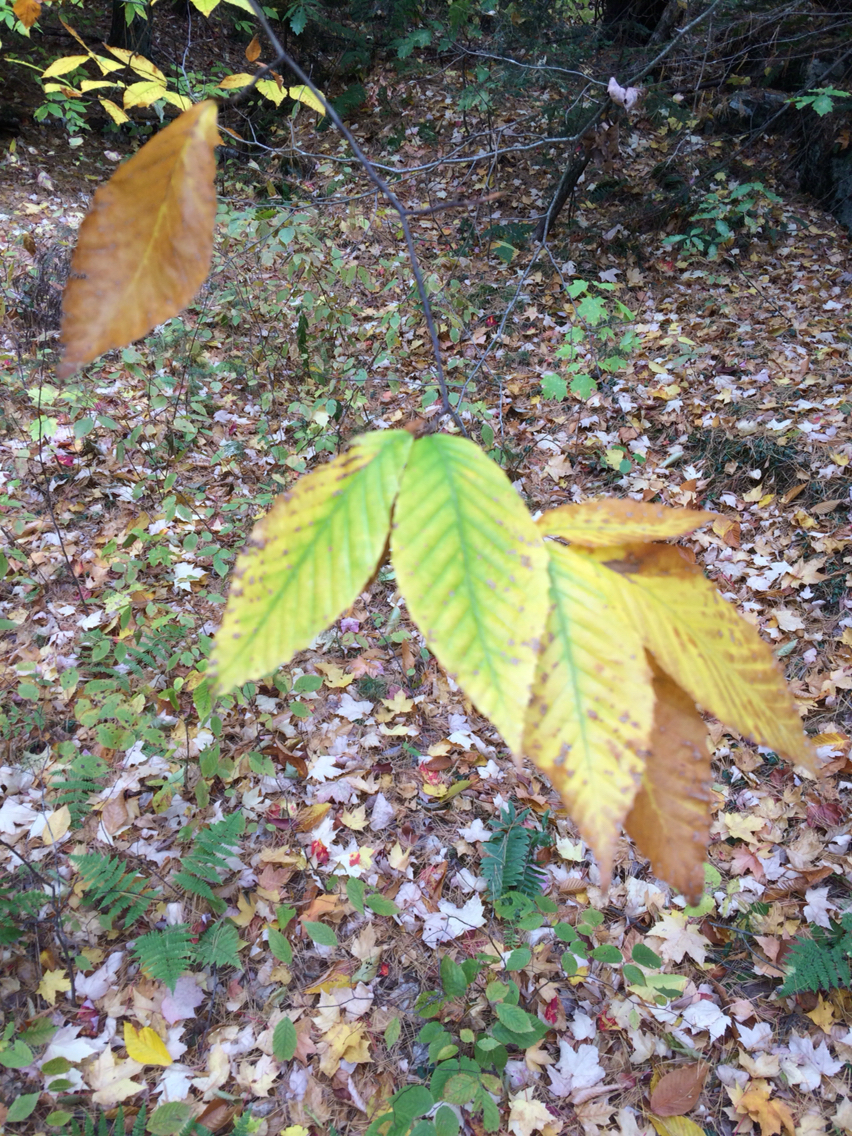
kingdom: Plantae
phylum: Tracheophyta
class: Magnoliopsida
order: Fagales
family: Fagaceae
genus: Fagus
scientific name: Fagus grandifolia
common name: American beech
